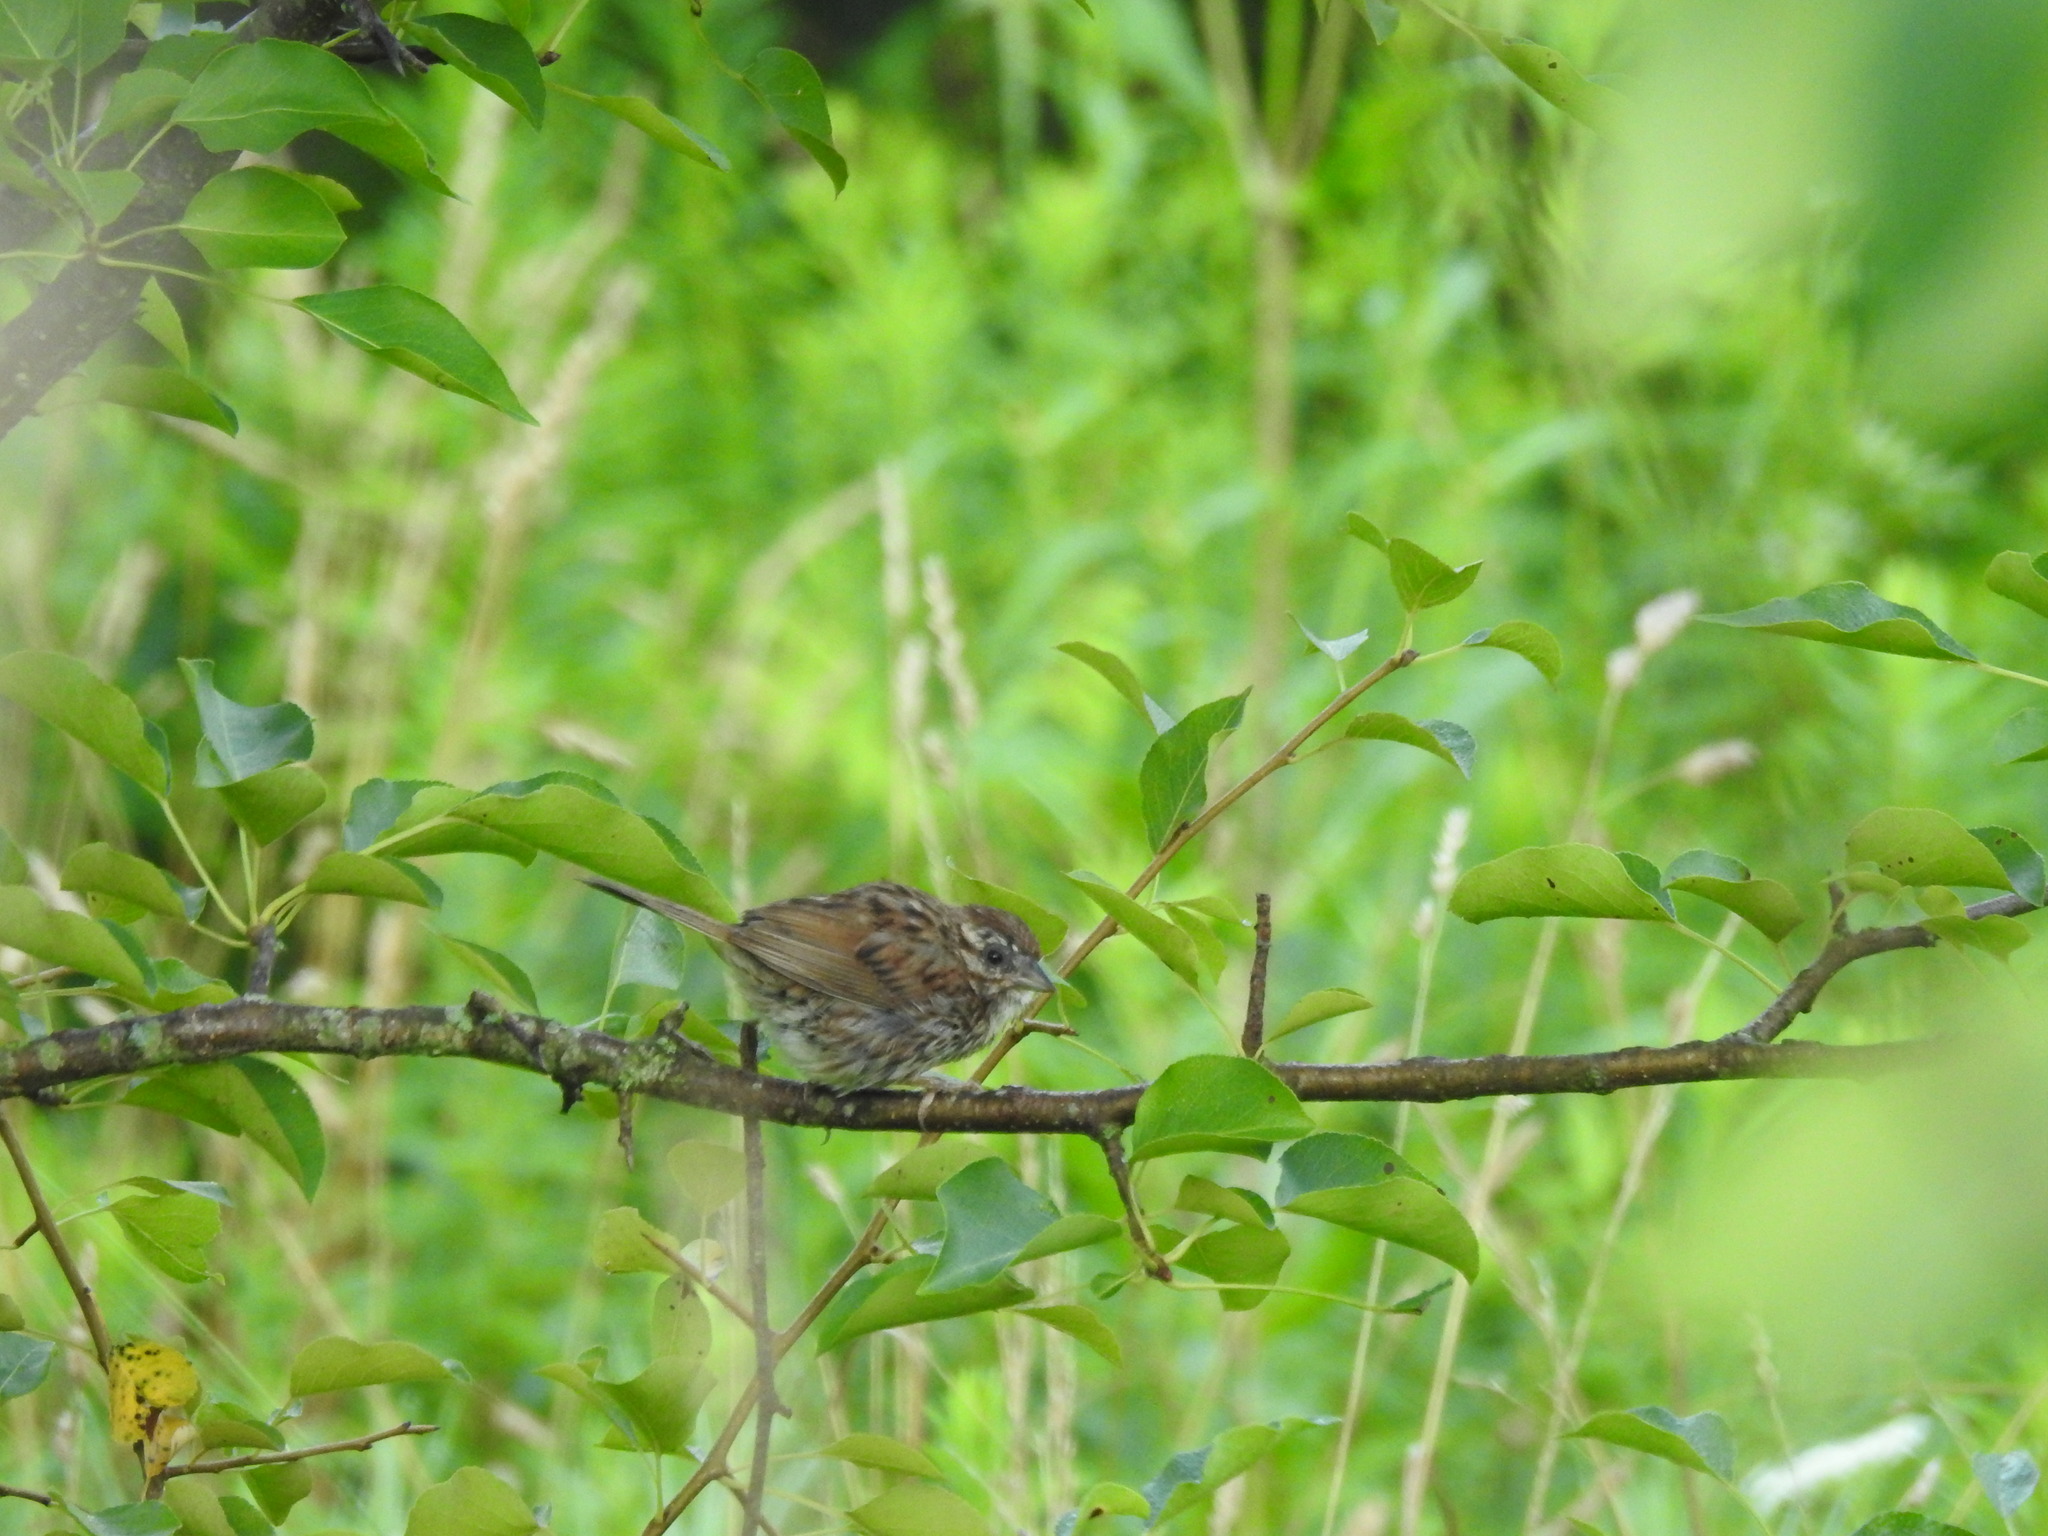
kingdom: Animalia
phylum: Chordata
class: Aves
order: Passeriformes
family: Passerellidae
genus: Melospiza
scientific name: Melospiza melodia
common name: Song sparrow
